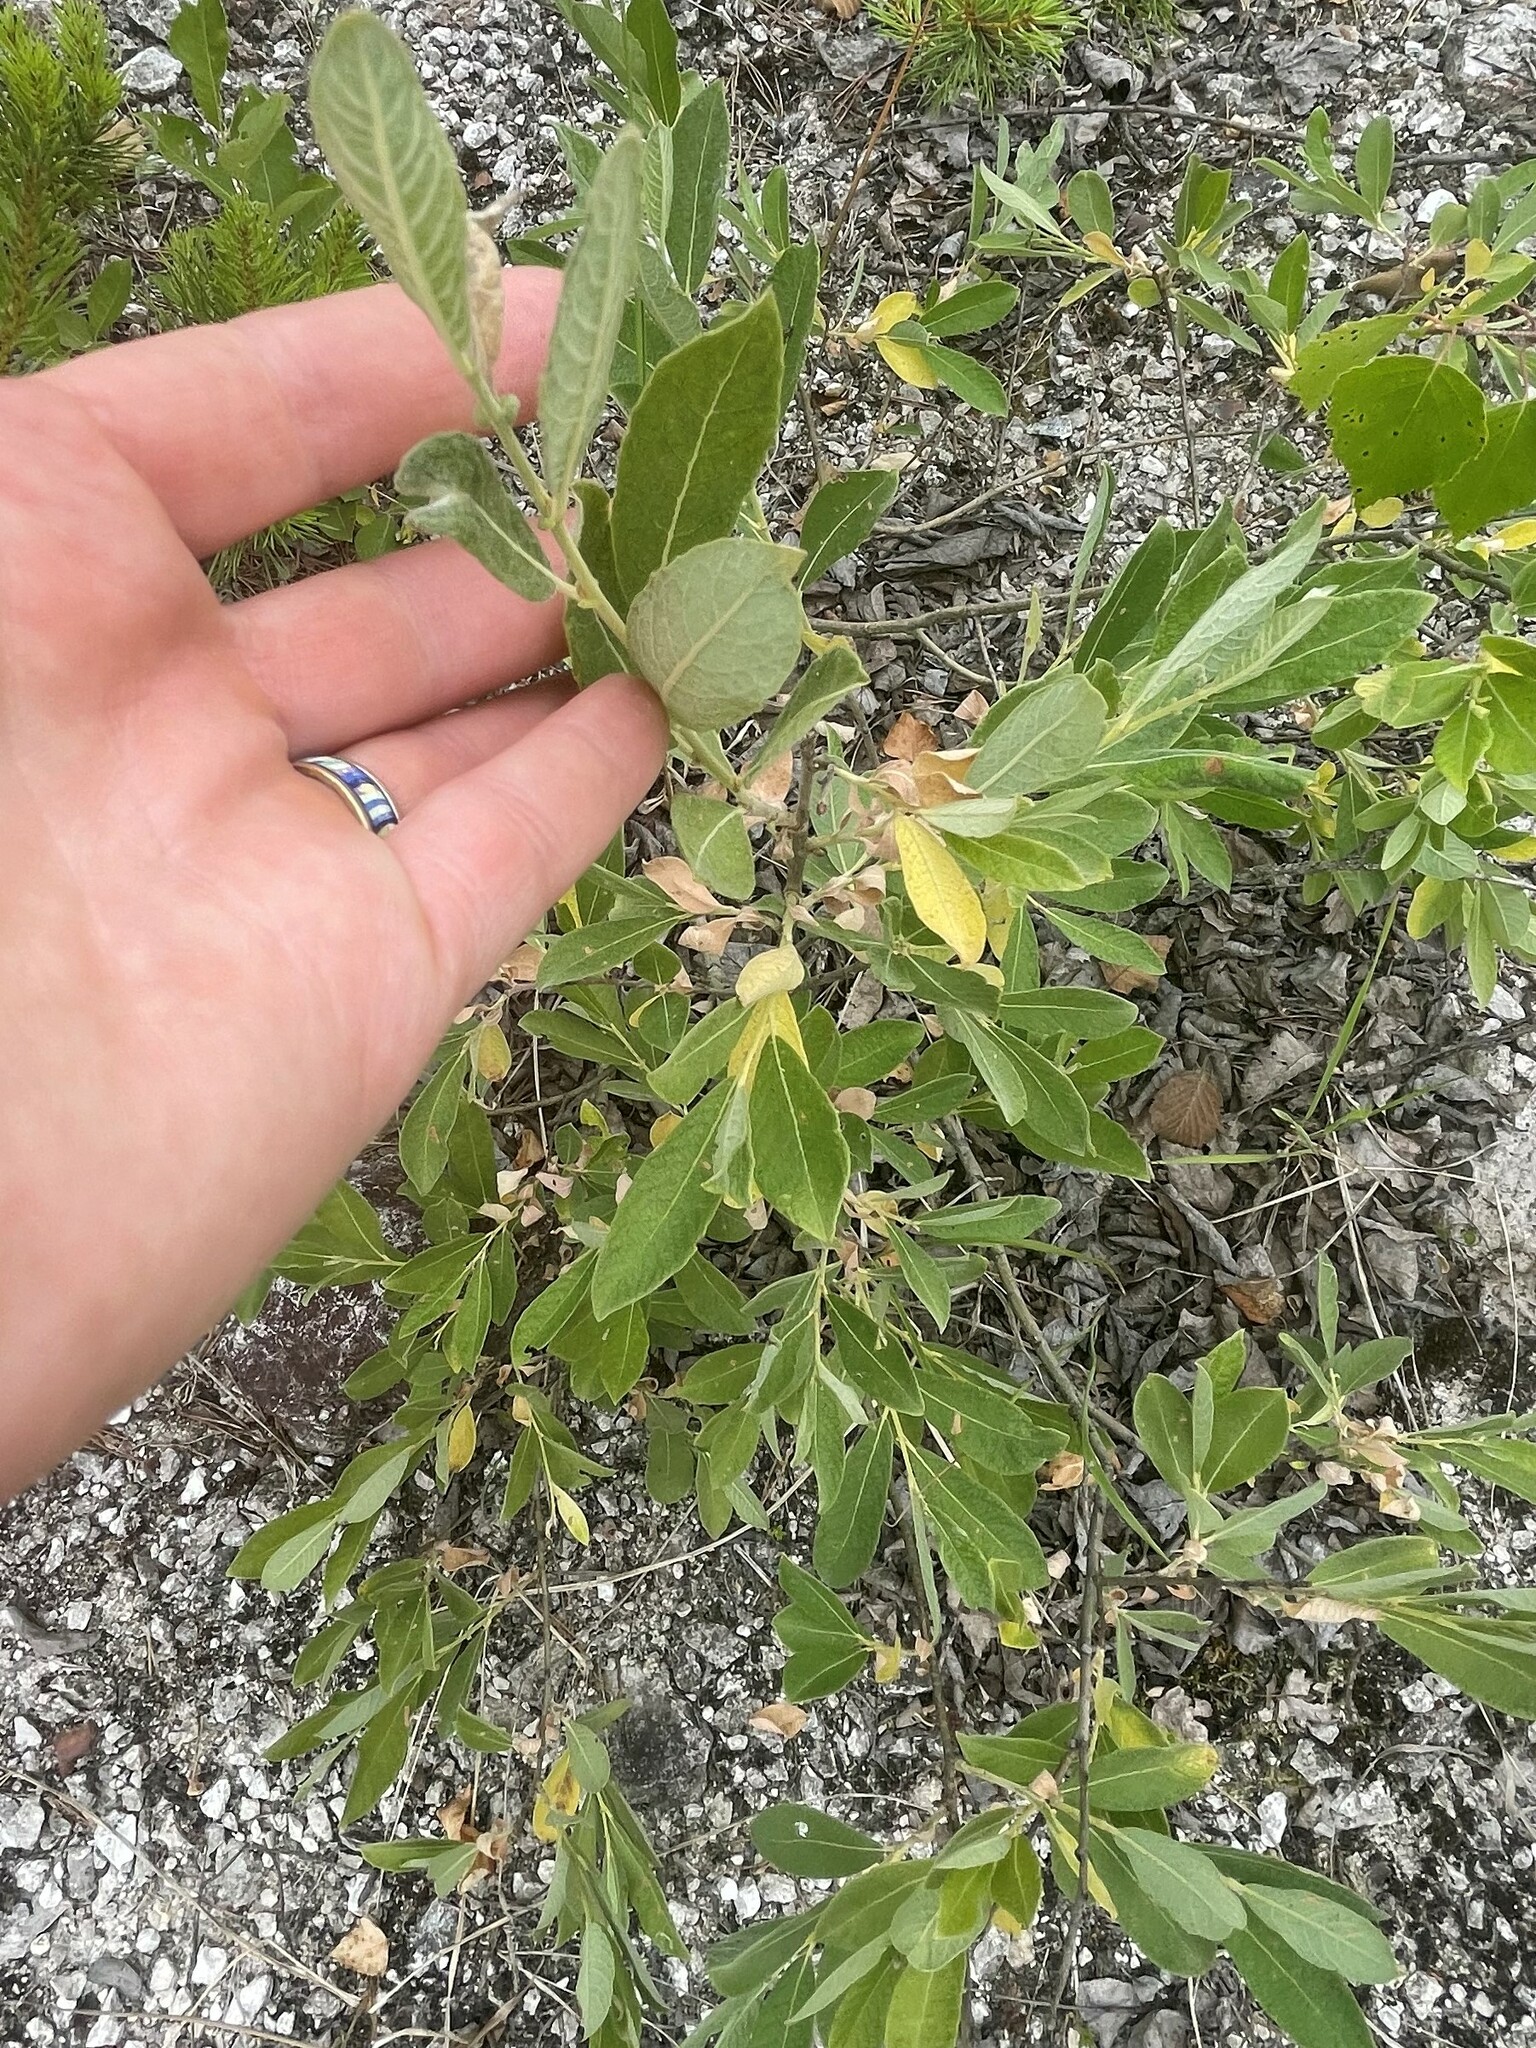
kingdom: Plantae
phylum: Tracheophyta
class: Magnoliopsida
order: Malpighiales
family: Salicaceae
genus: Salix
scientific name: Salix cinerea
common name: Common sallow
